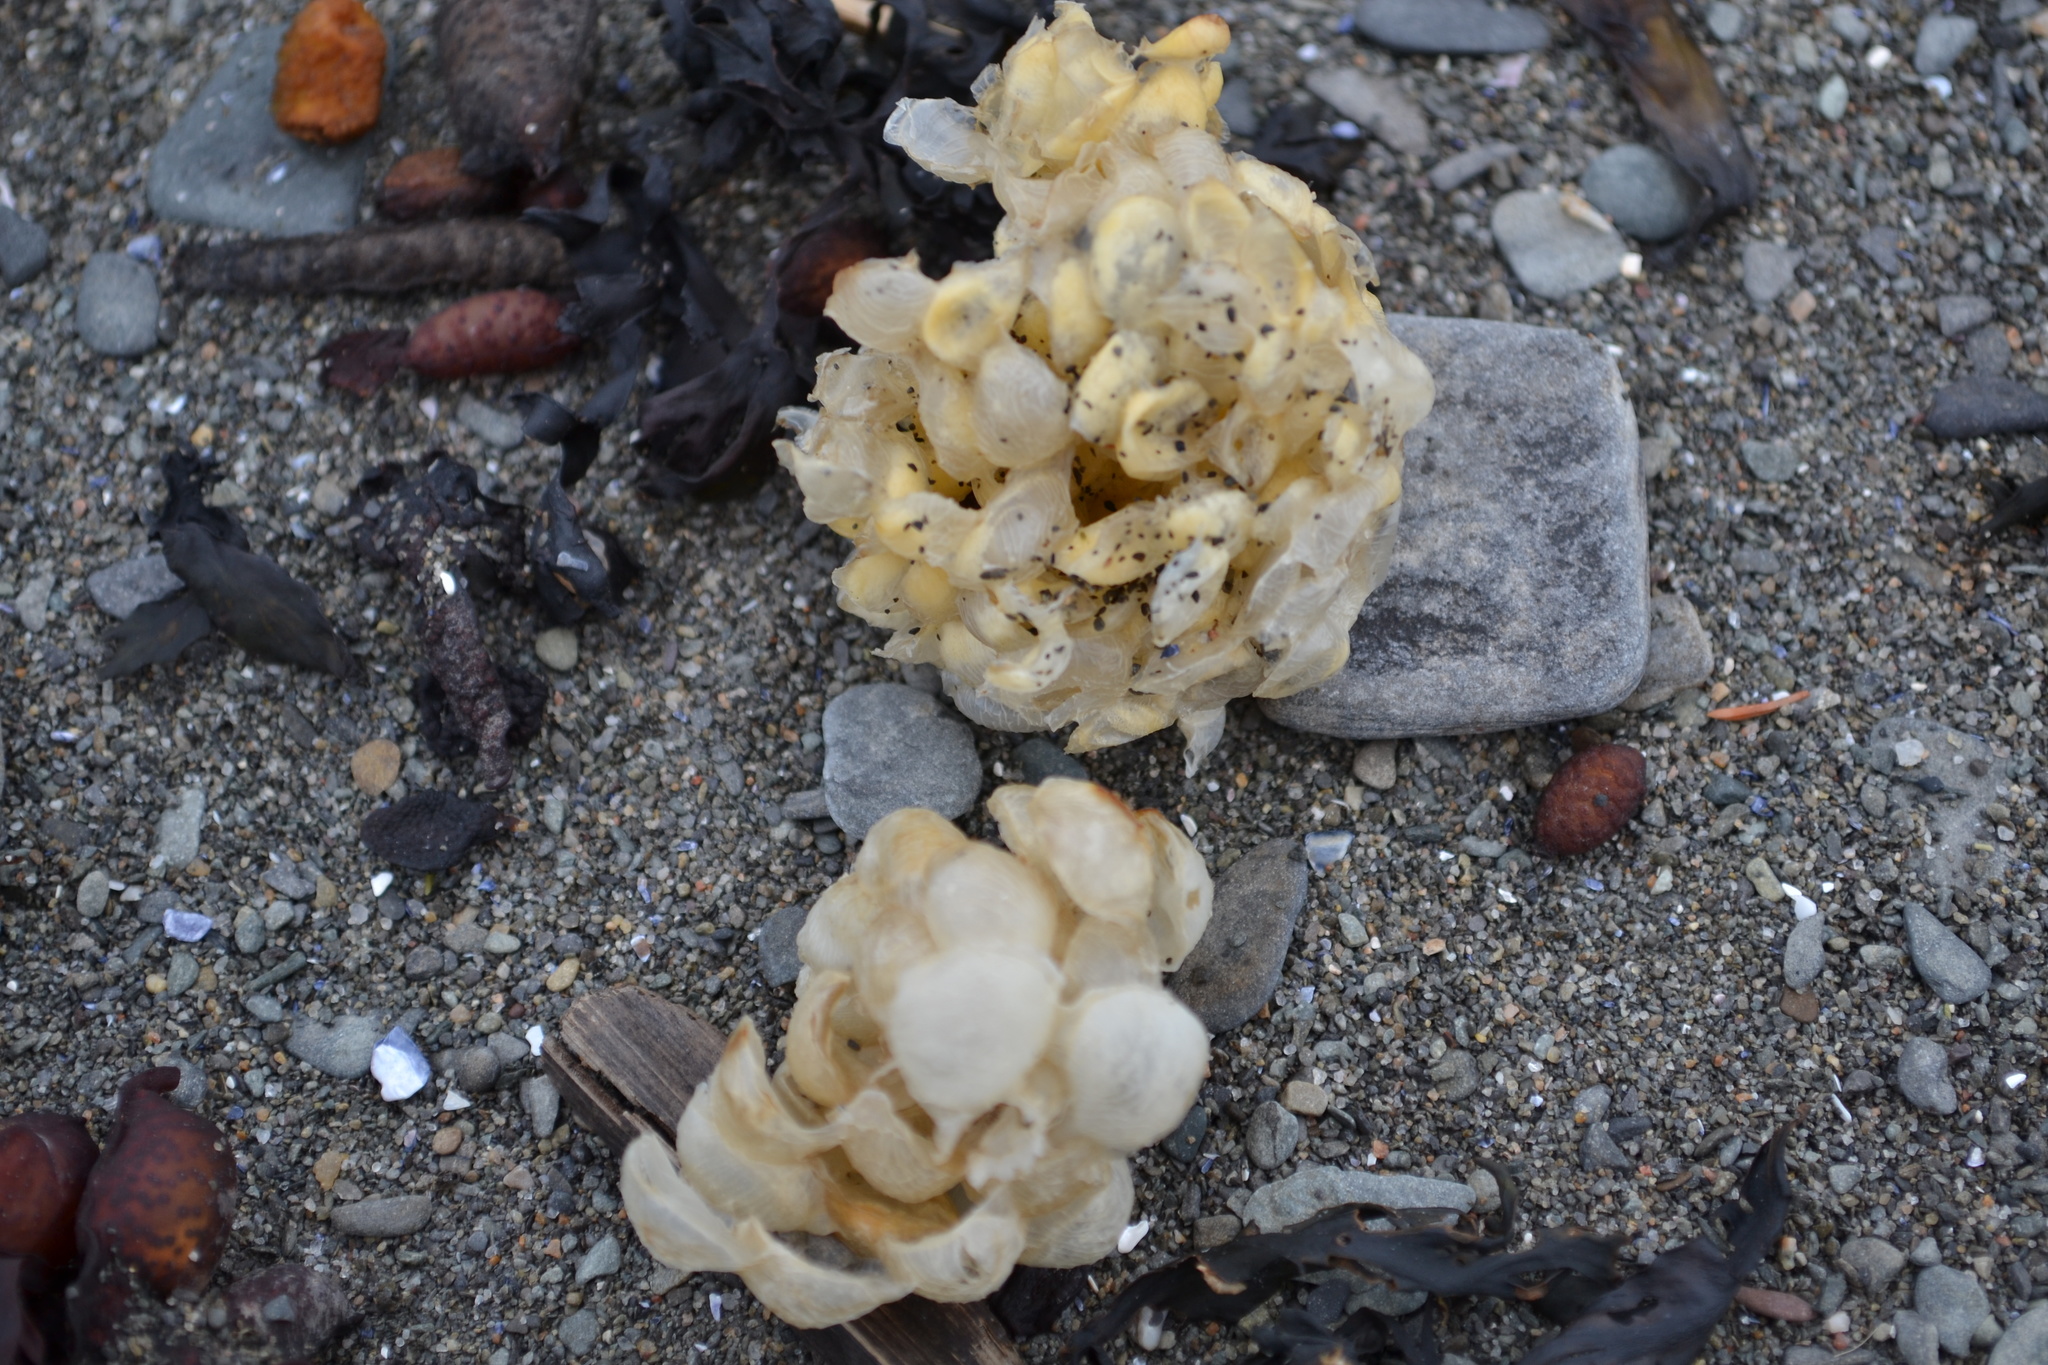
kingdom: Animalia
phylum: Mollusca
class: Gastropoda
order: Neogastropoda
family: Buccinidae
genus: Buccinum
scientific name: Buccinum undatum
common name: Common whelk
